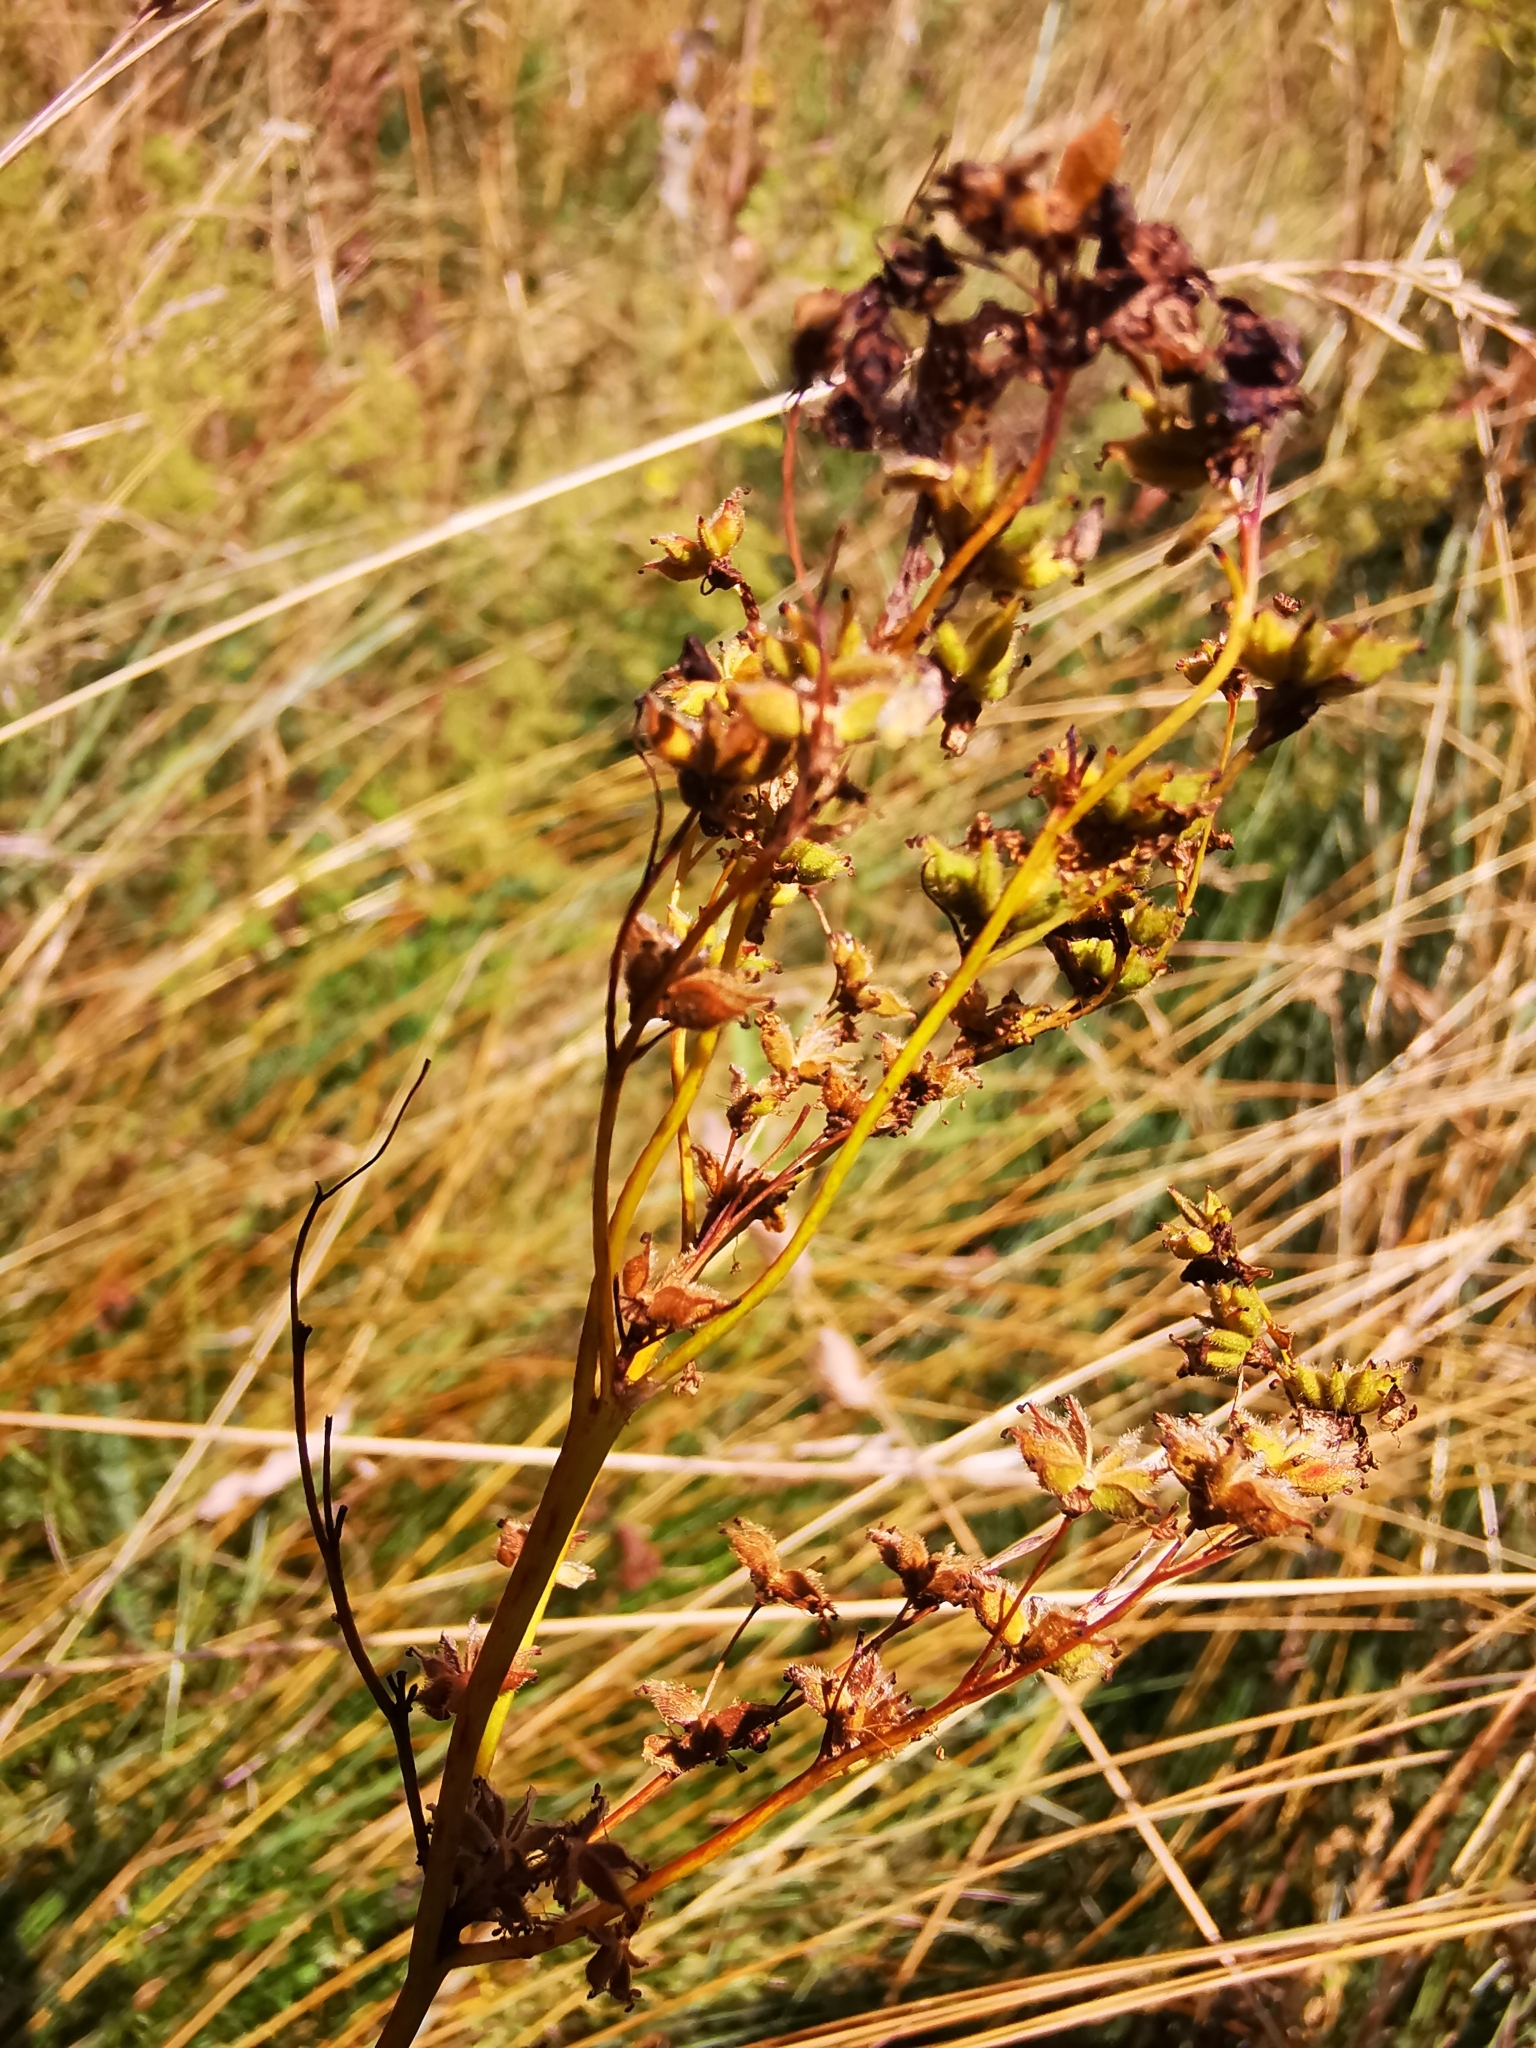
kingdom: Plantae
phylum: Tracheophyta
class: Magnoliopsida
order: Rosales
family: Rosaceae
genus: Filipendula
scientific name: Filipendula vulgaris
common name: Dropwort
